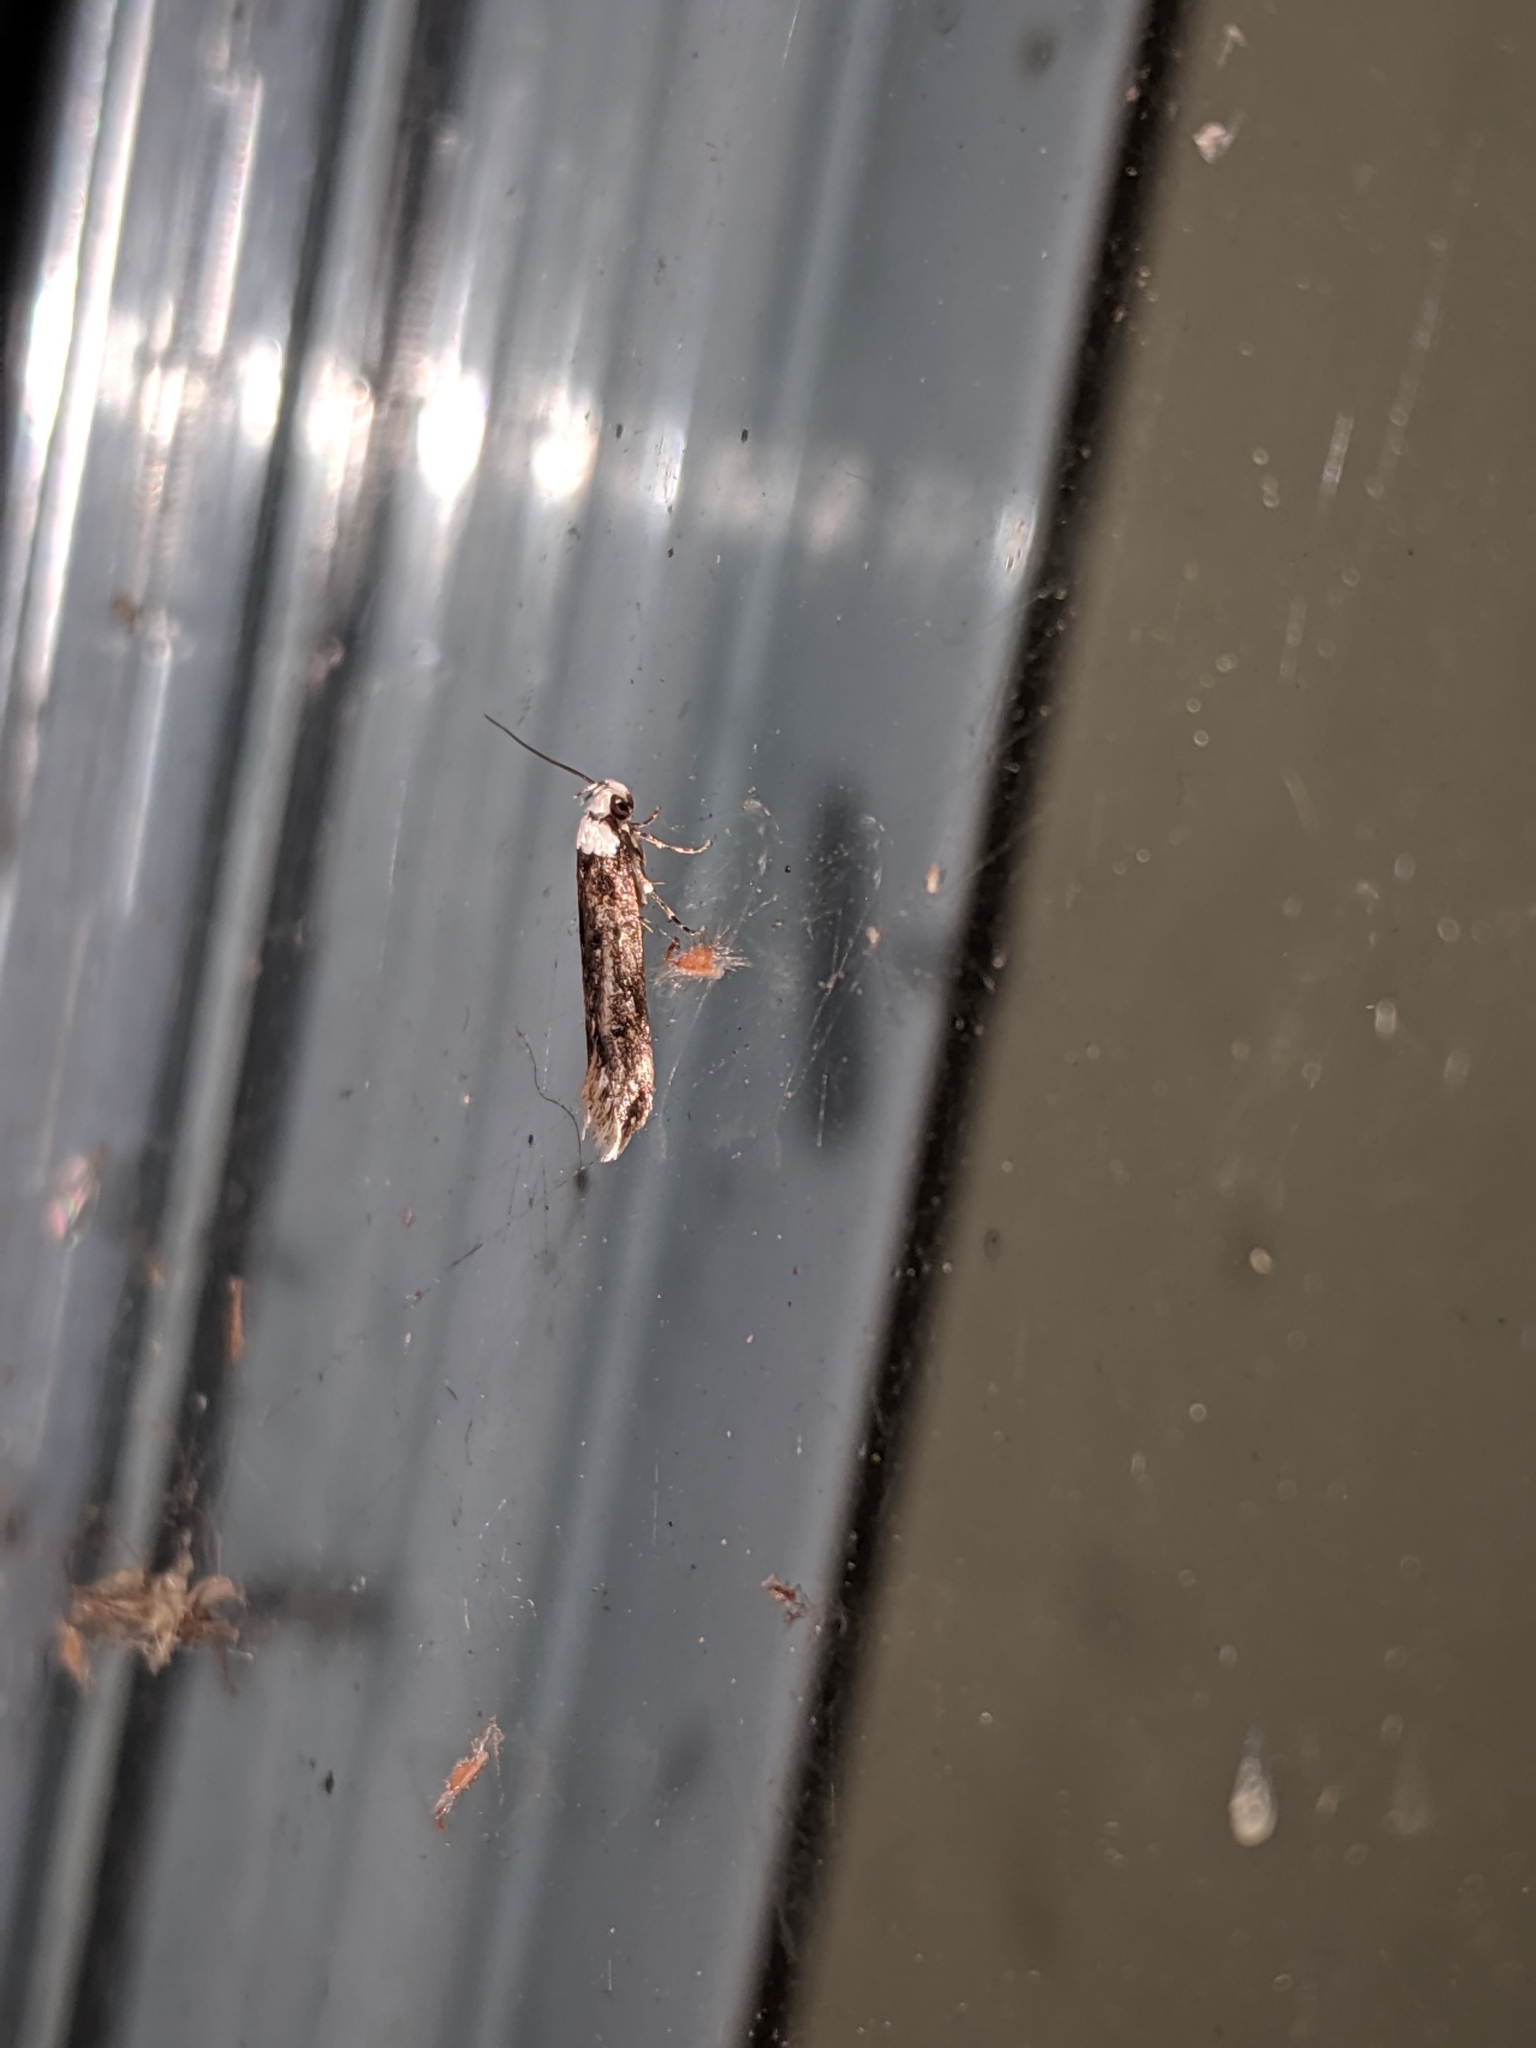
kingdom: Animalia
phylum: Arthropoda
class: Insecta
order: Lepidoptera
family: Oecophoridae
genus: Endrosis
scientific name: Endrosis sarcitrella
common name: White-shouldered house moth
